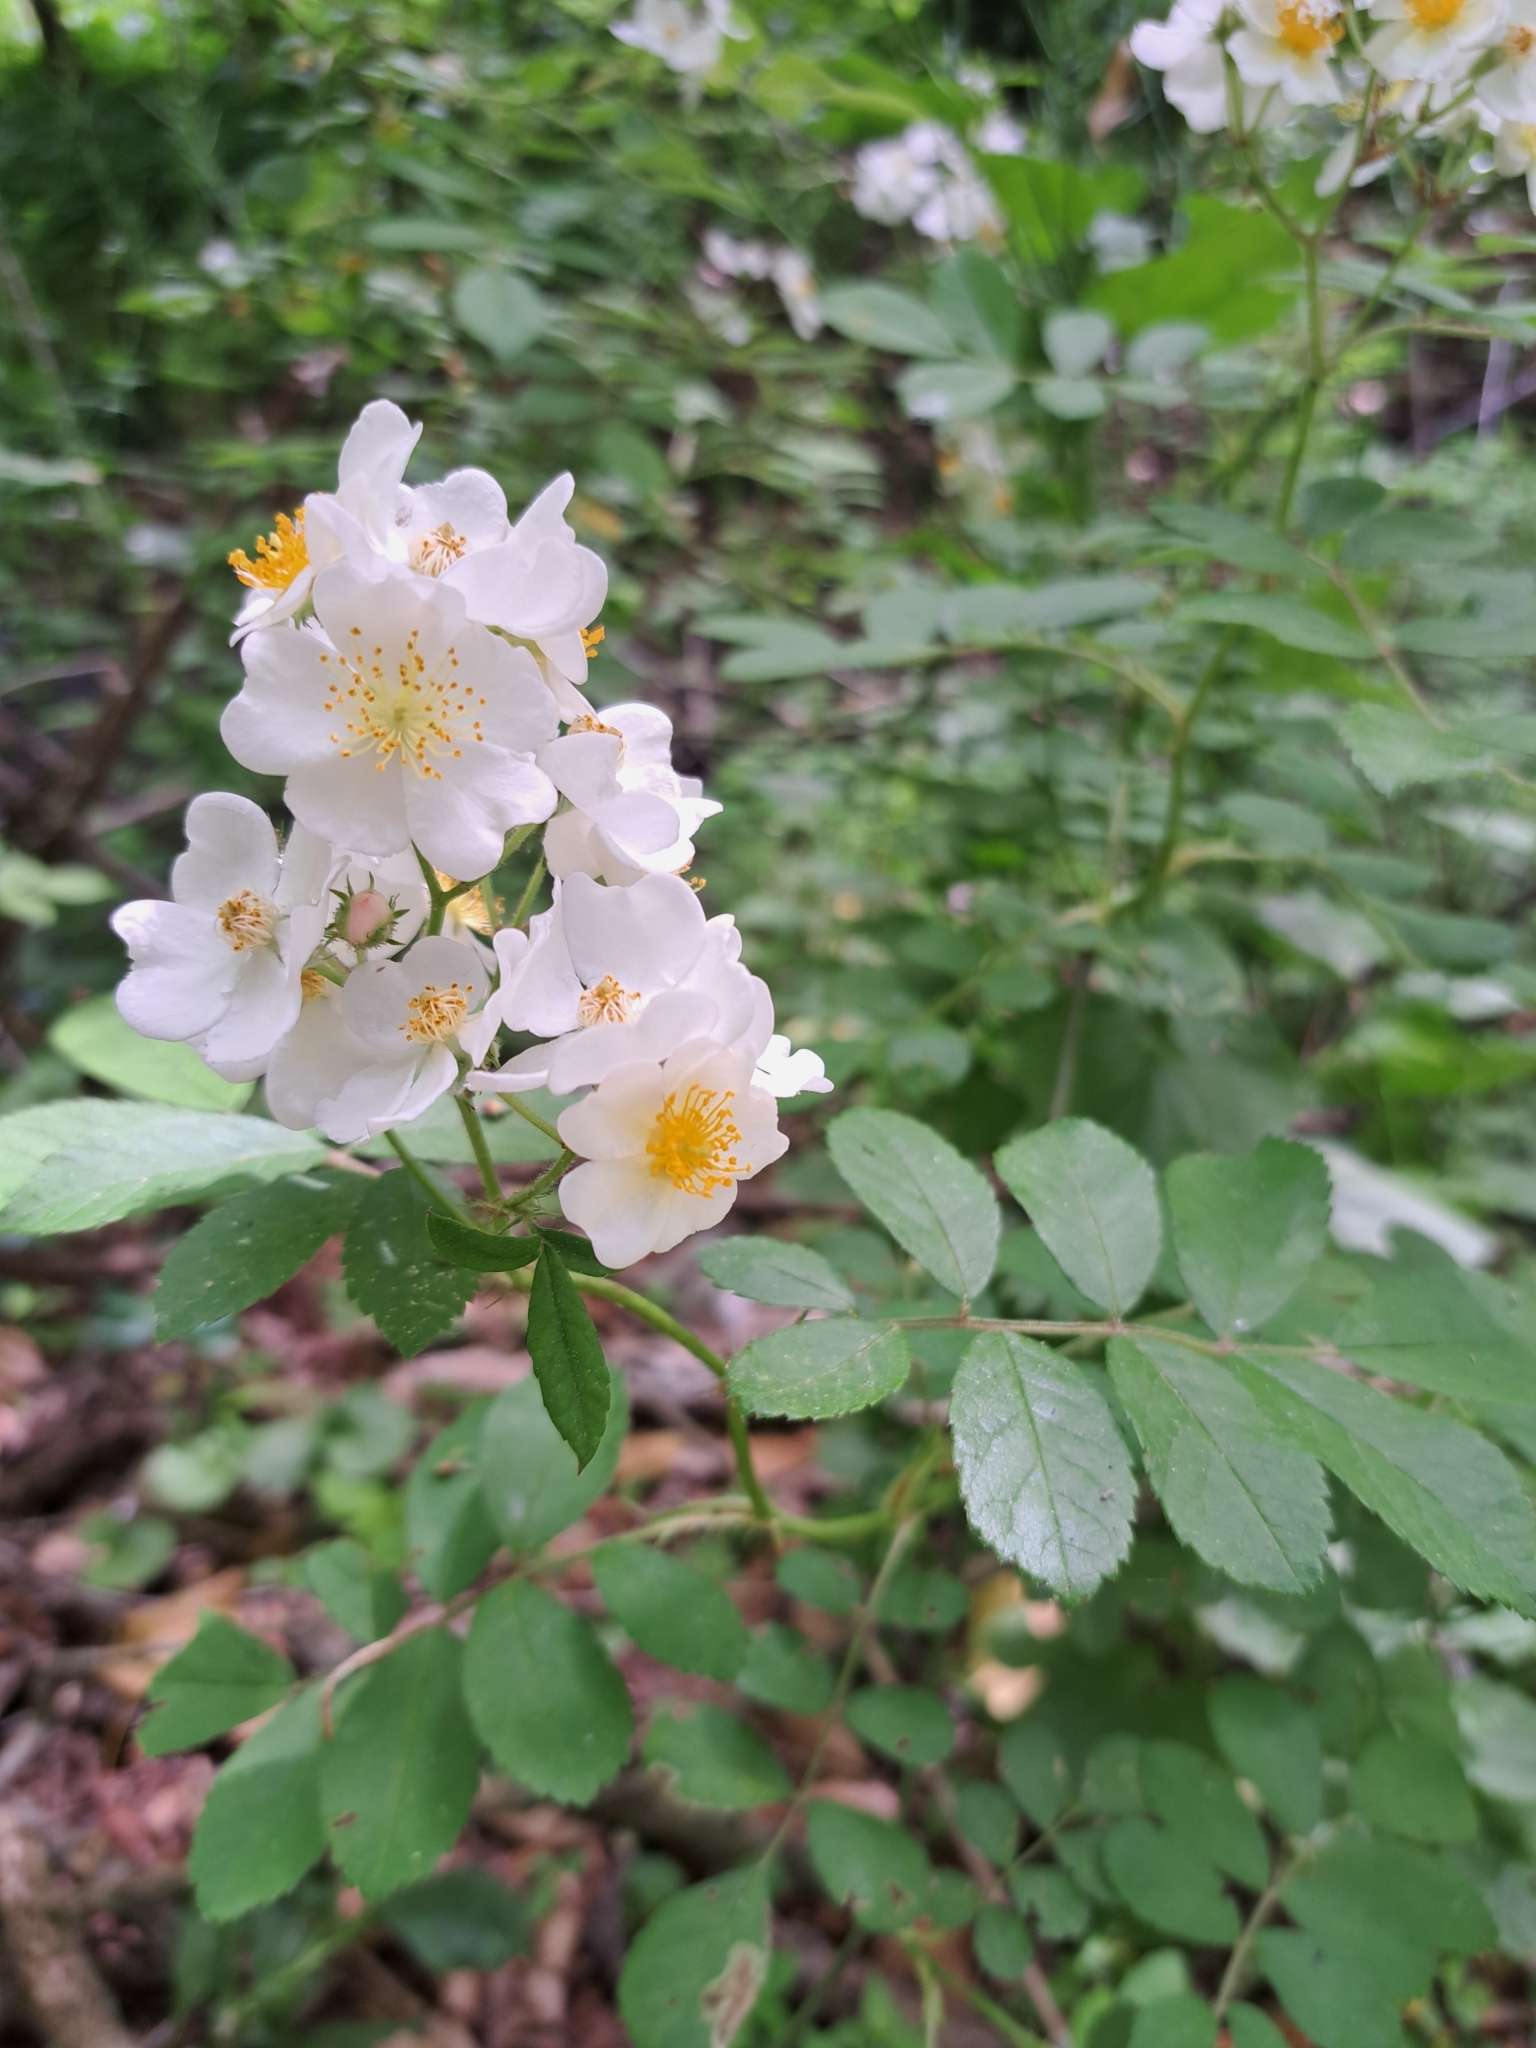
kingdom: Plantae
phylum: Tracheophyta
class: Magnoliopsida
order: Rosales
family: Rosaceae
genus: Rosa
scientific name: Rosa multiflora
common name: Multiflora rose
